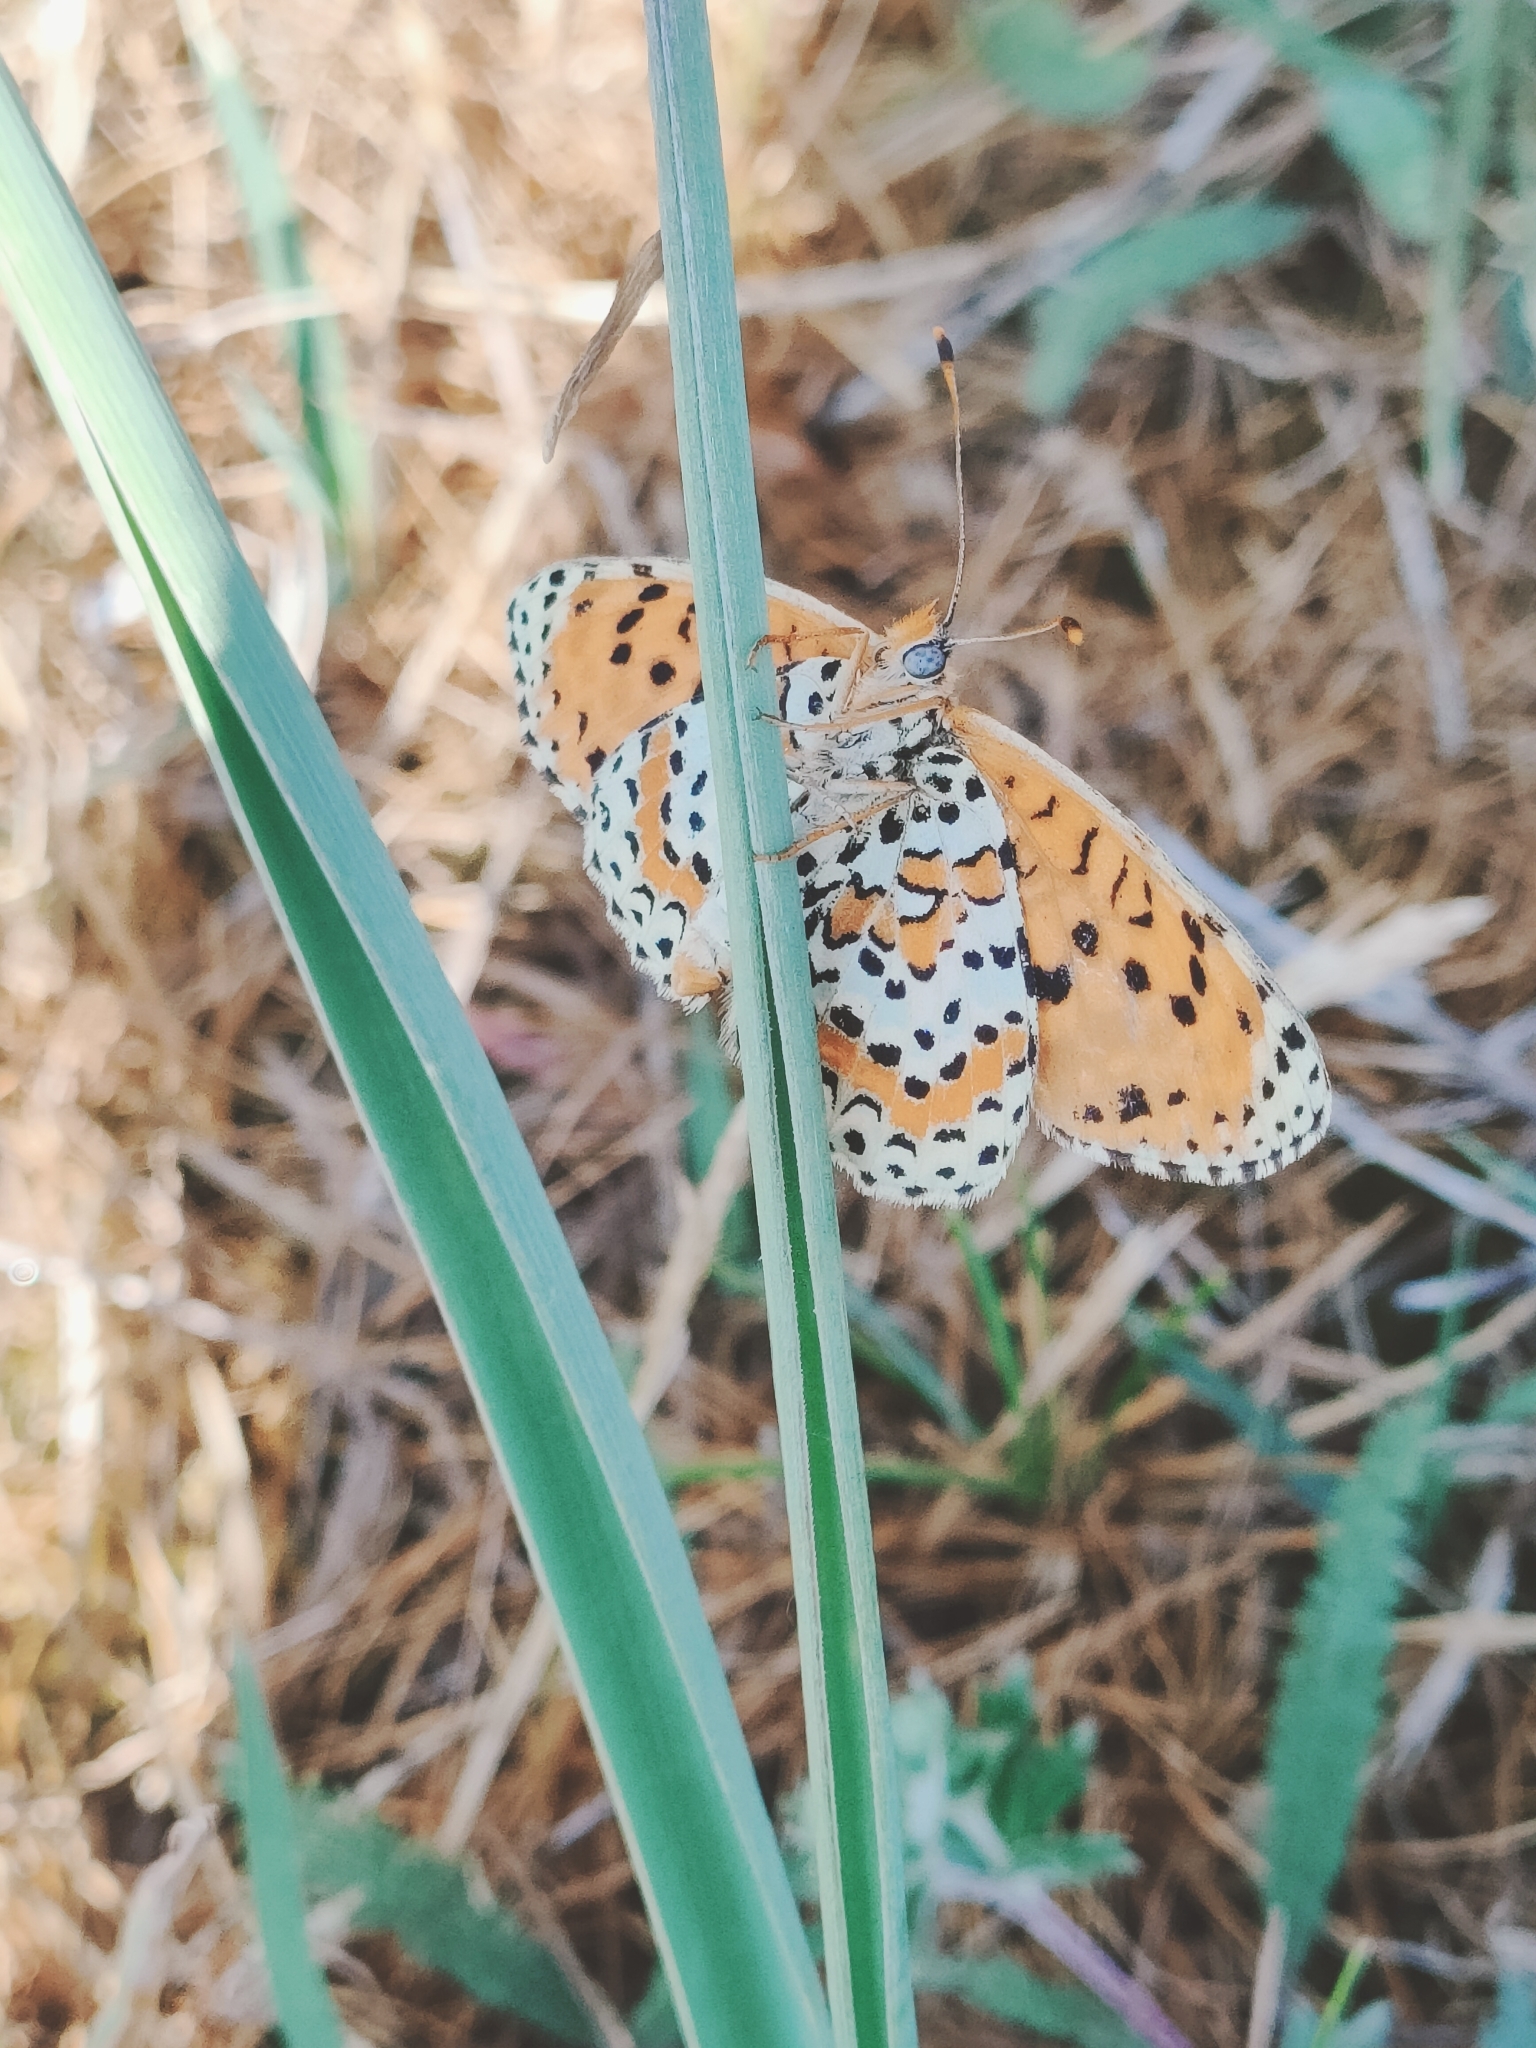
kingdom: Animalia
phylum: Arthropoda
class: Insecta
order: Lepidoptera
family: Nymphalidae
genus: Melitaea
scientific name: Melitaea didyma
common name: Spotted fritillary
